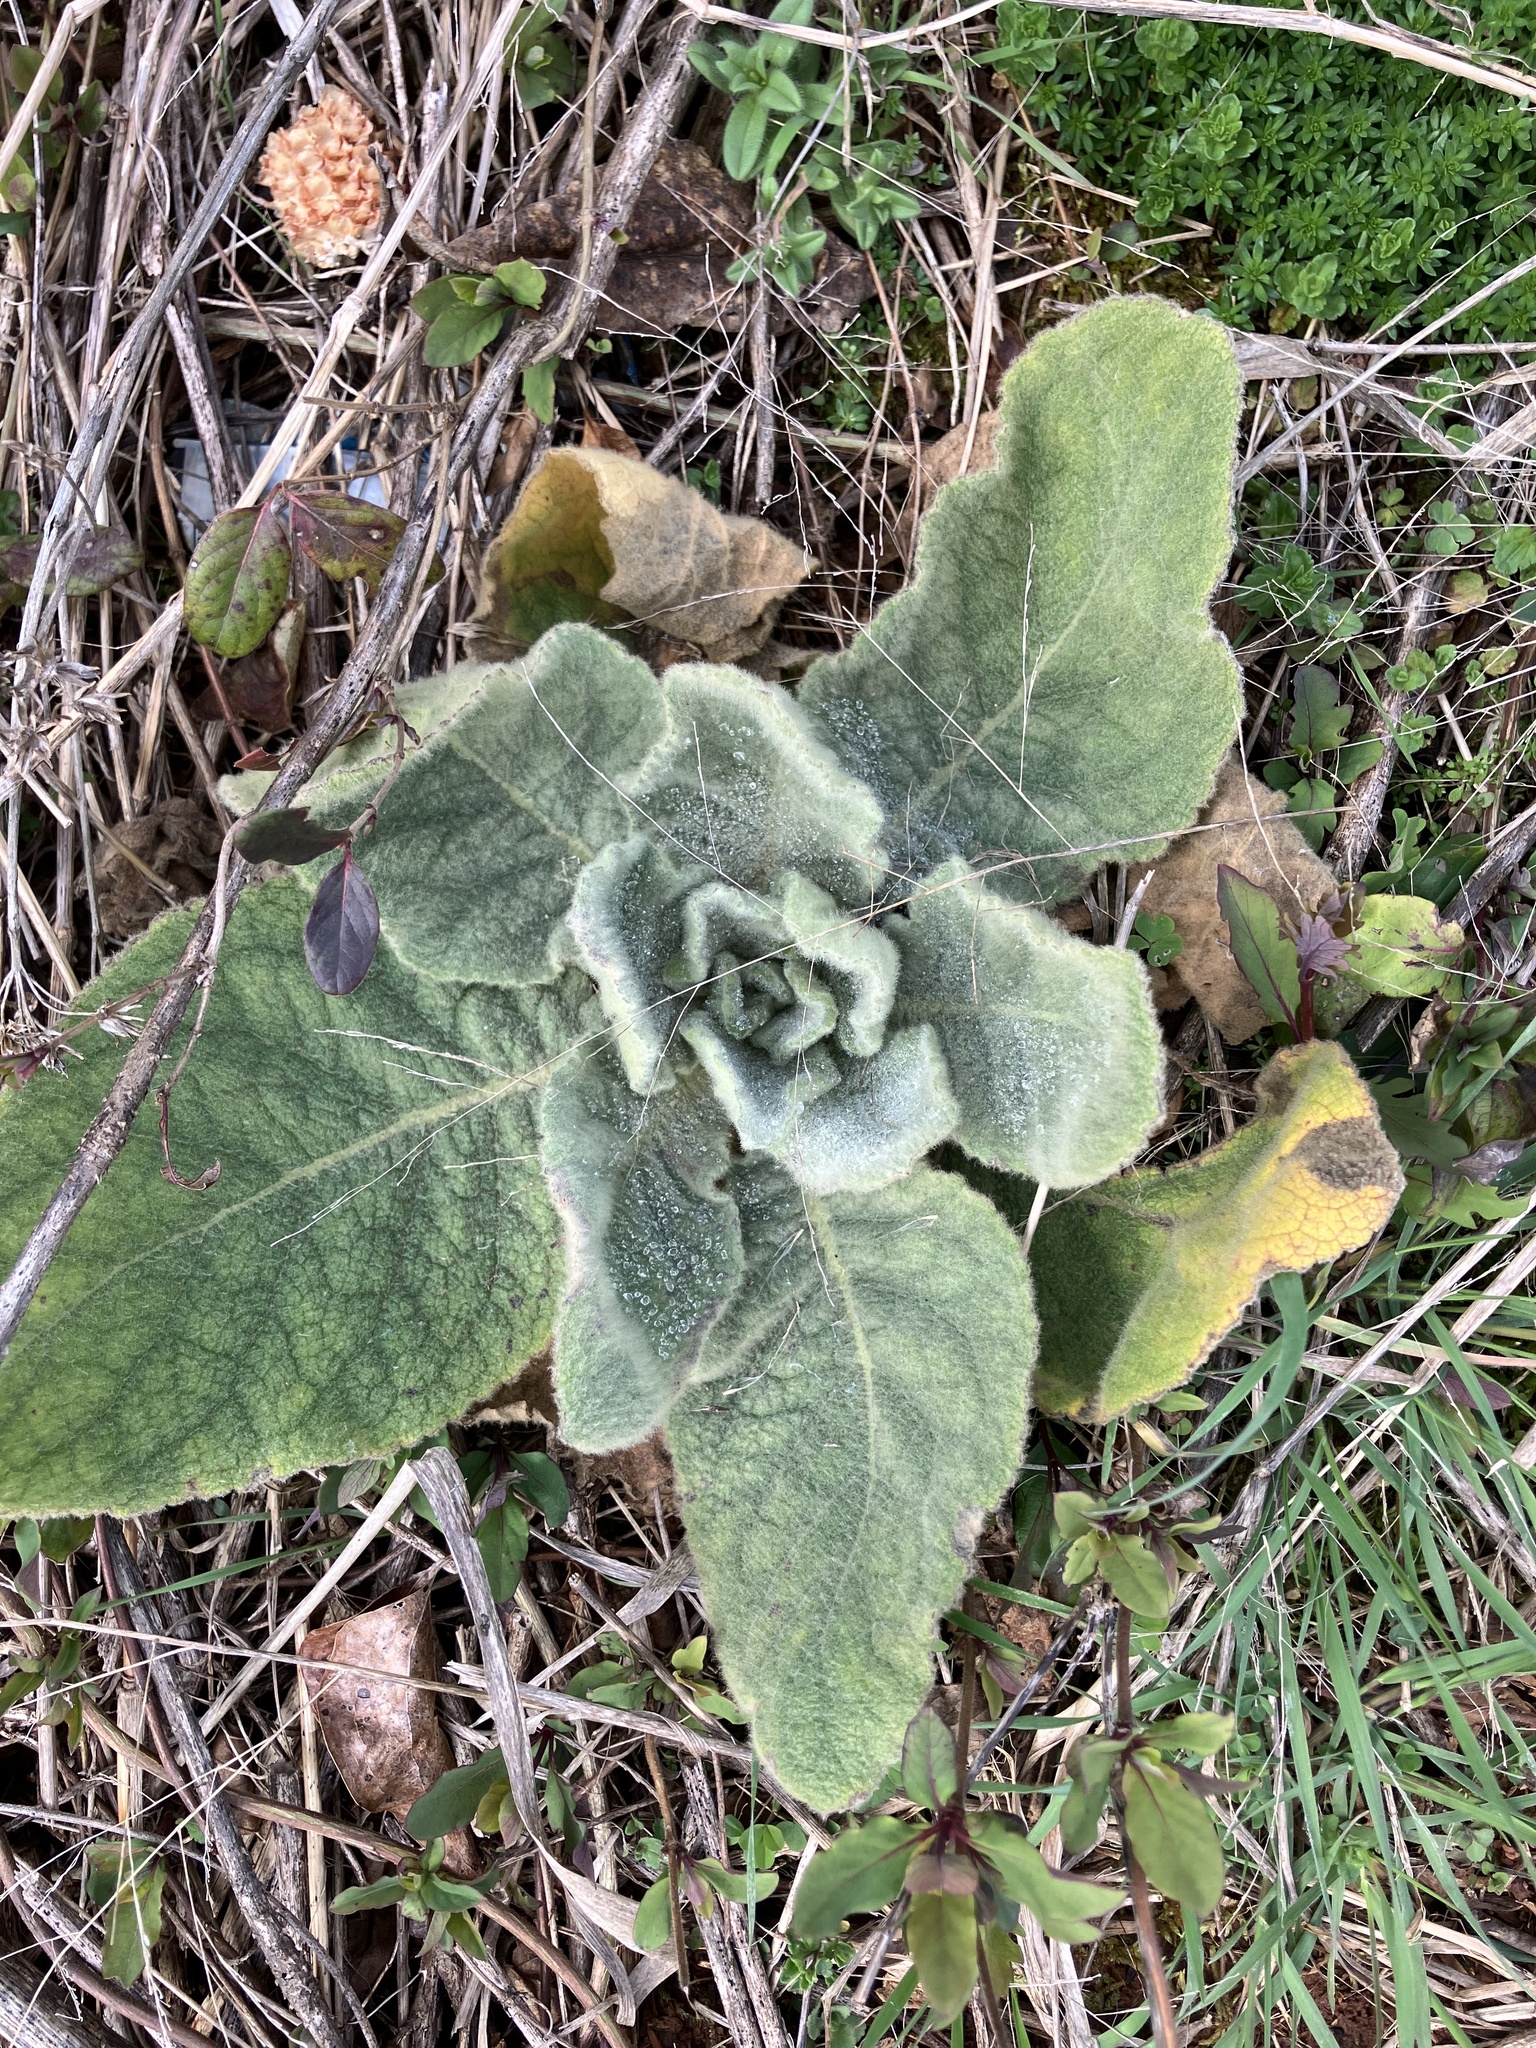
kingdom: Plantae
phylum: Tracheophyta
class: Magnoliopsida
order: Lamiales
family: Scrophulariaceae
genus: Verbascum
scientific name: Verbascum thapsus
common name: Common mullein
